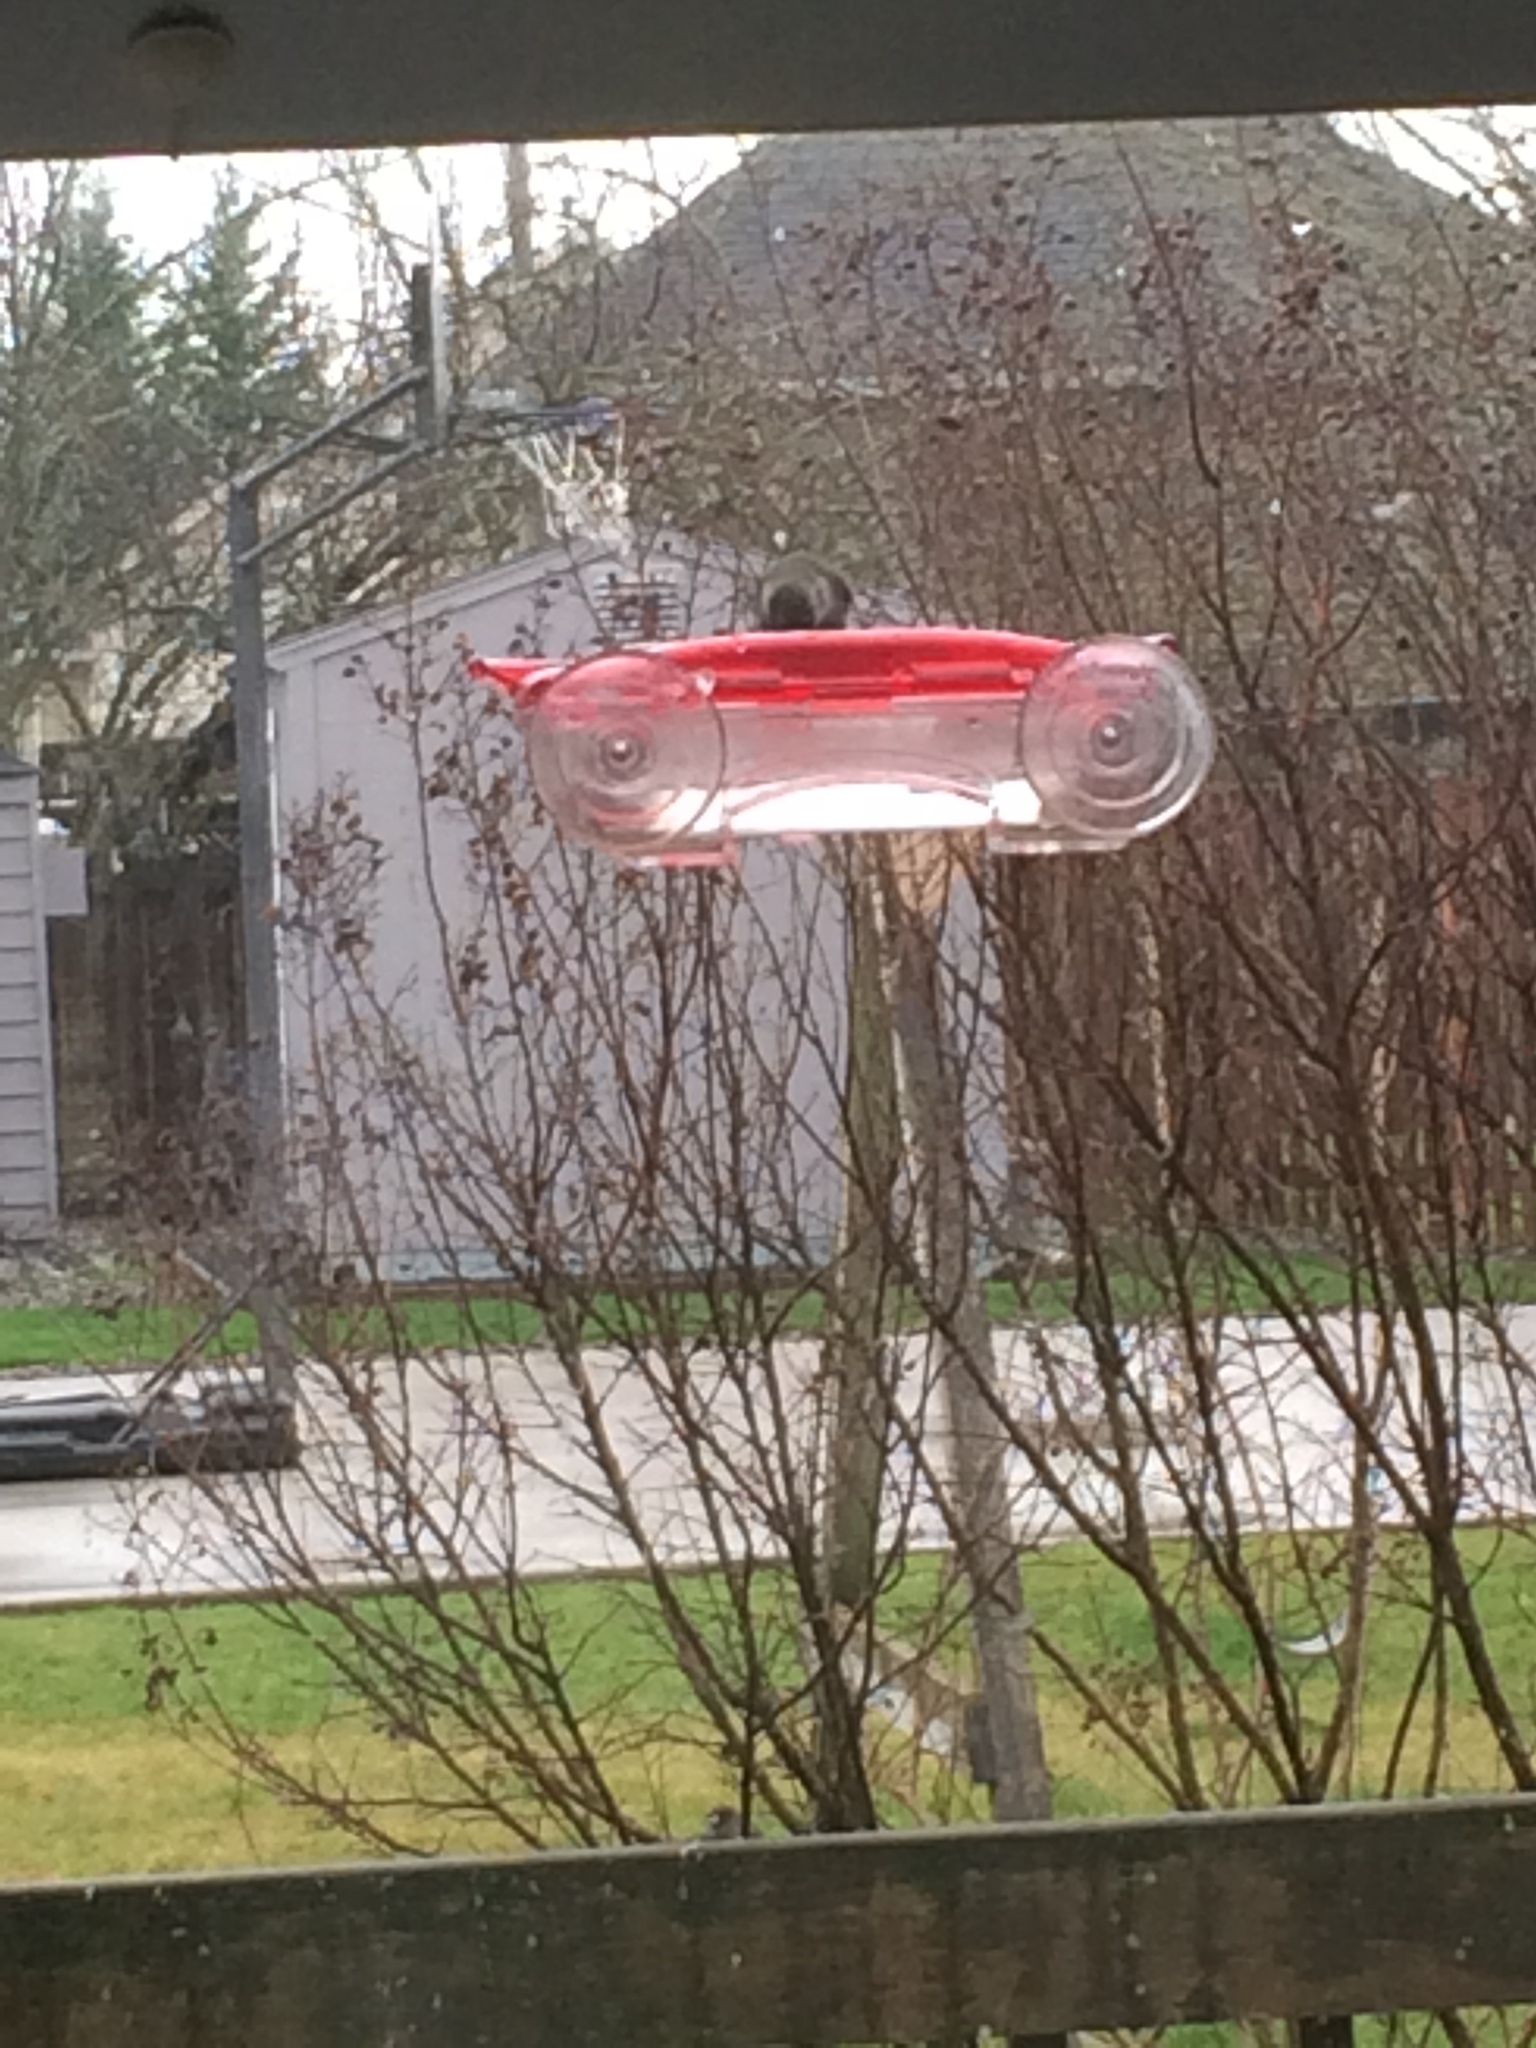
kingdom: Animalia
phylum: Chordata
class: Aves
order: Apodiformes
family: Trochilidae
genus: Calypte
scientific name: Calypte anna
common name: Anna's hummingbird
